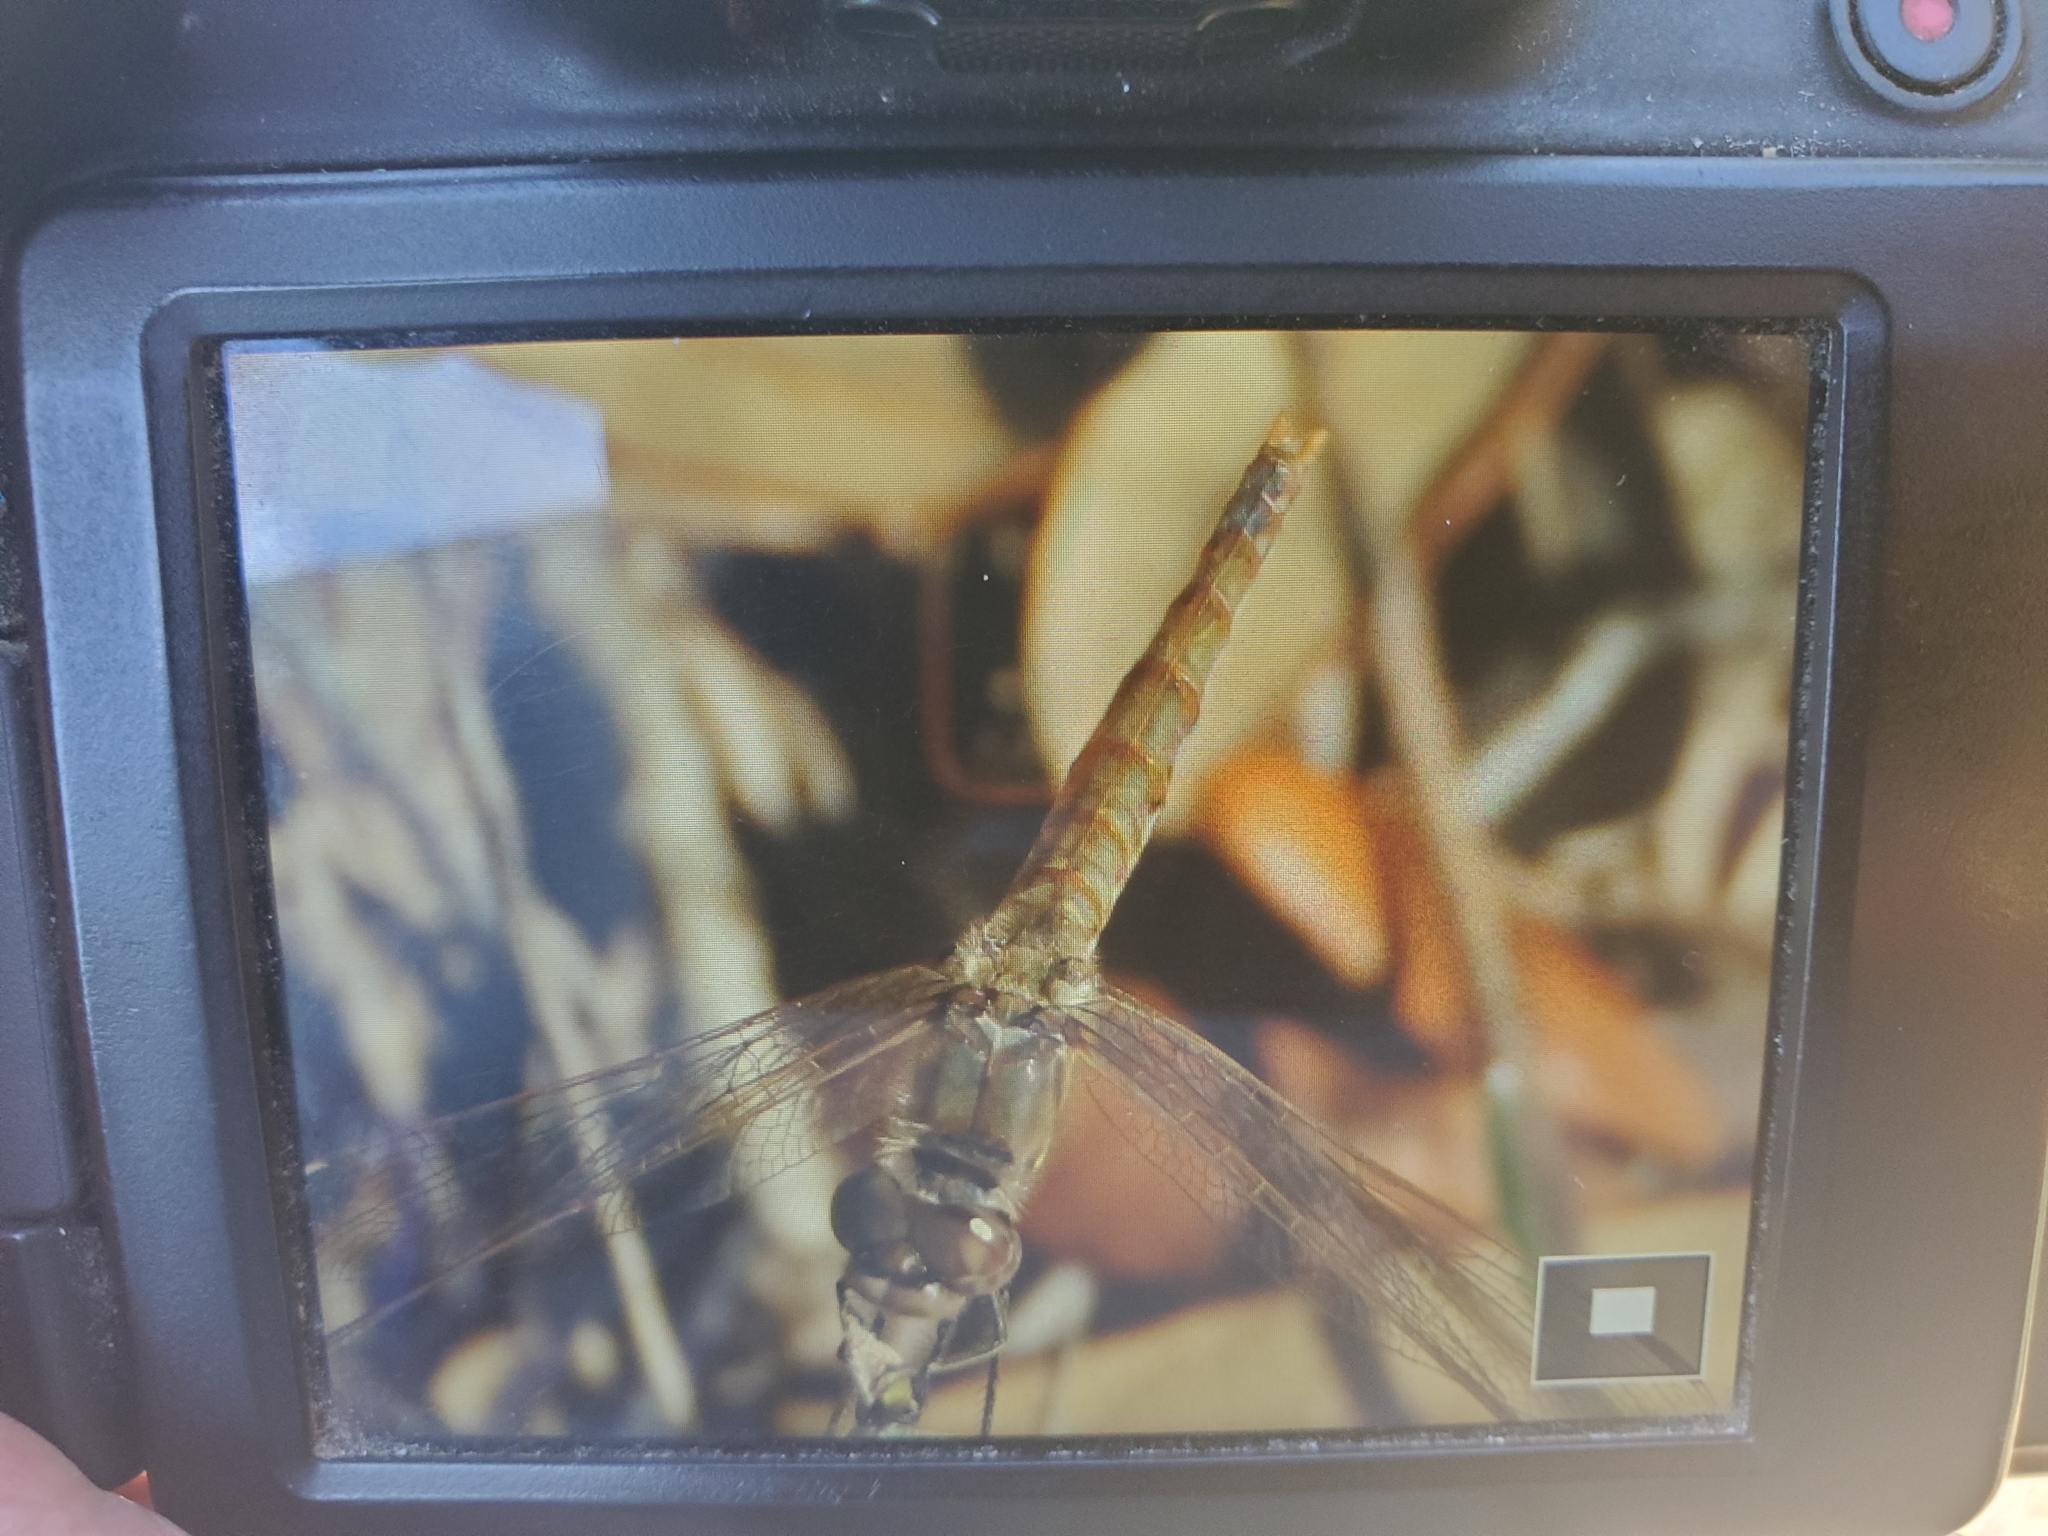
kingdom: Animalia
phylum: Arthropoda
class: Insecta
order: Odonata
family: Libellulidae
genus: Sympetrum
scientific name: Sympetrum corruptum
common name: Variegated meadowhawk
